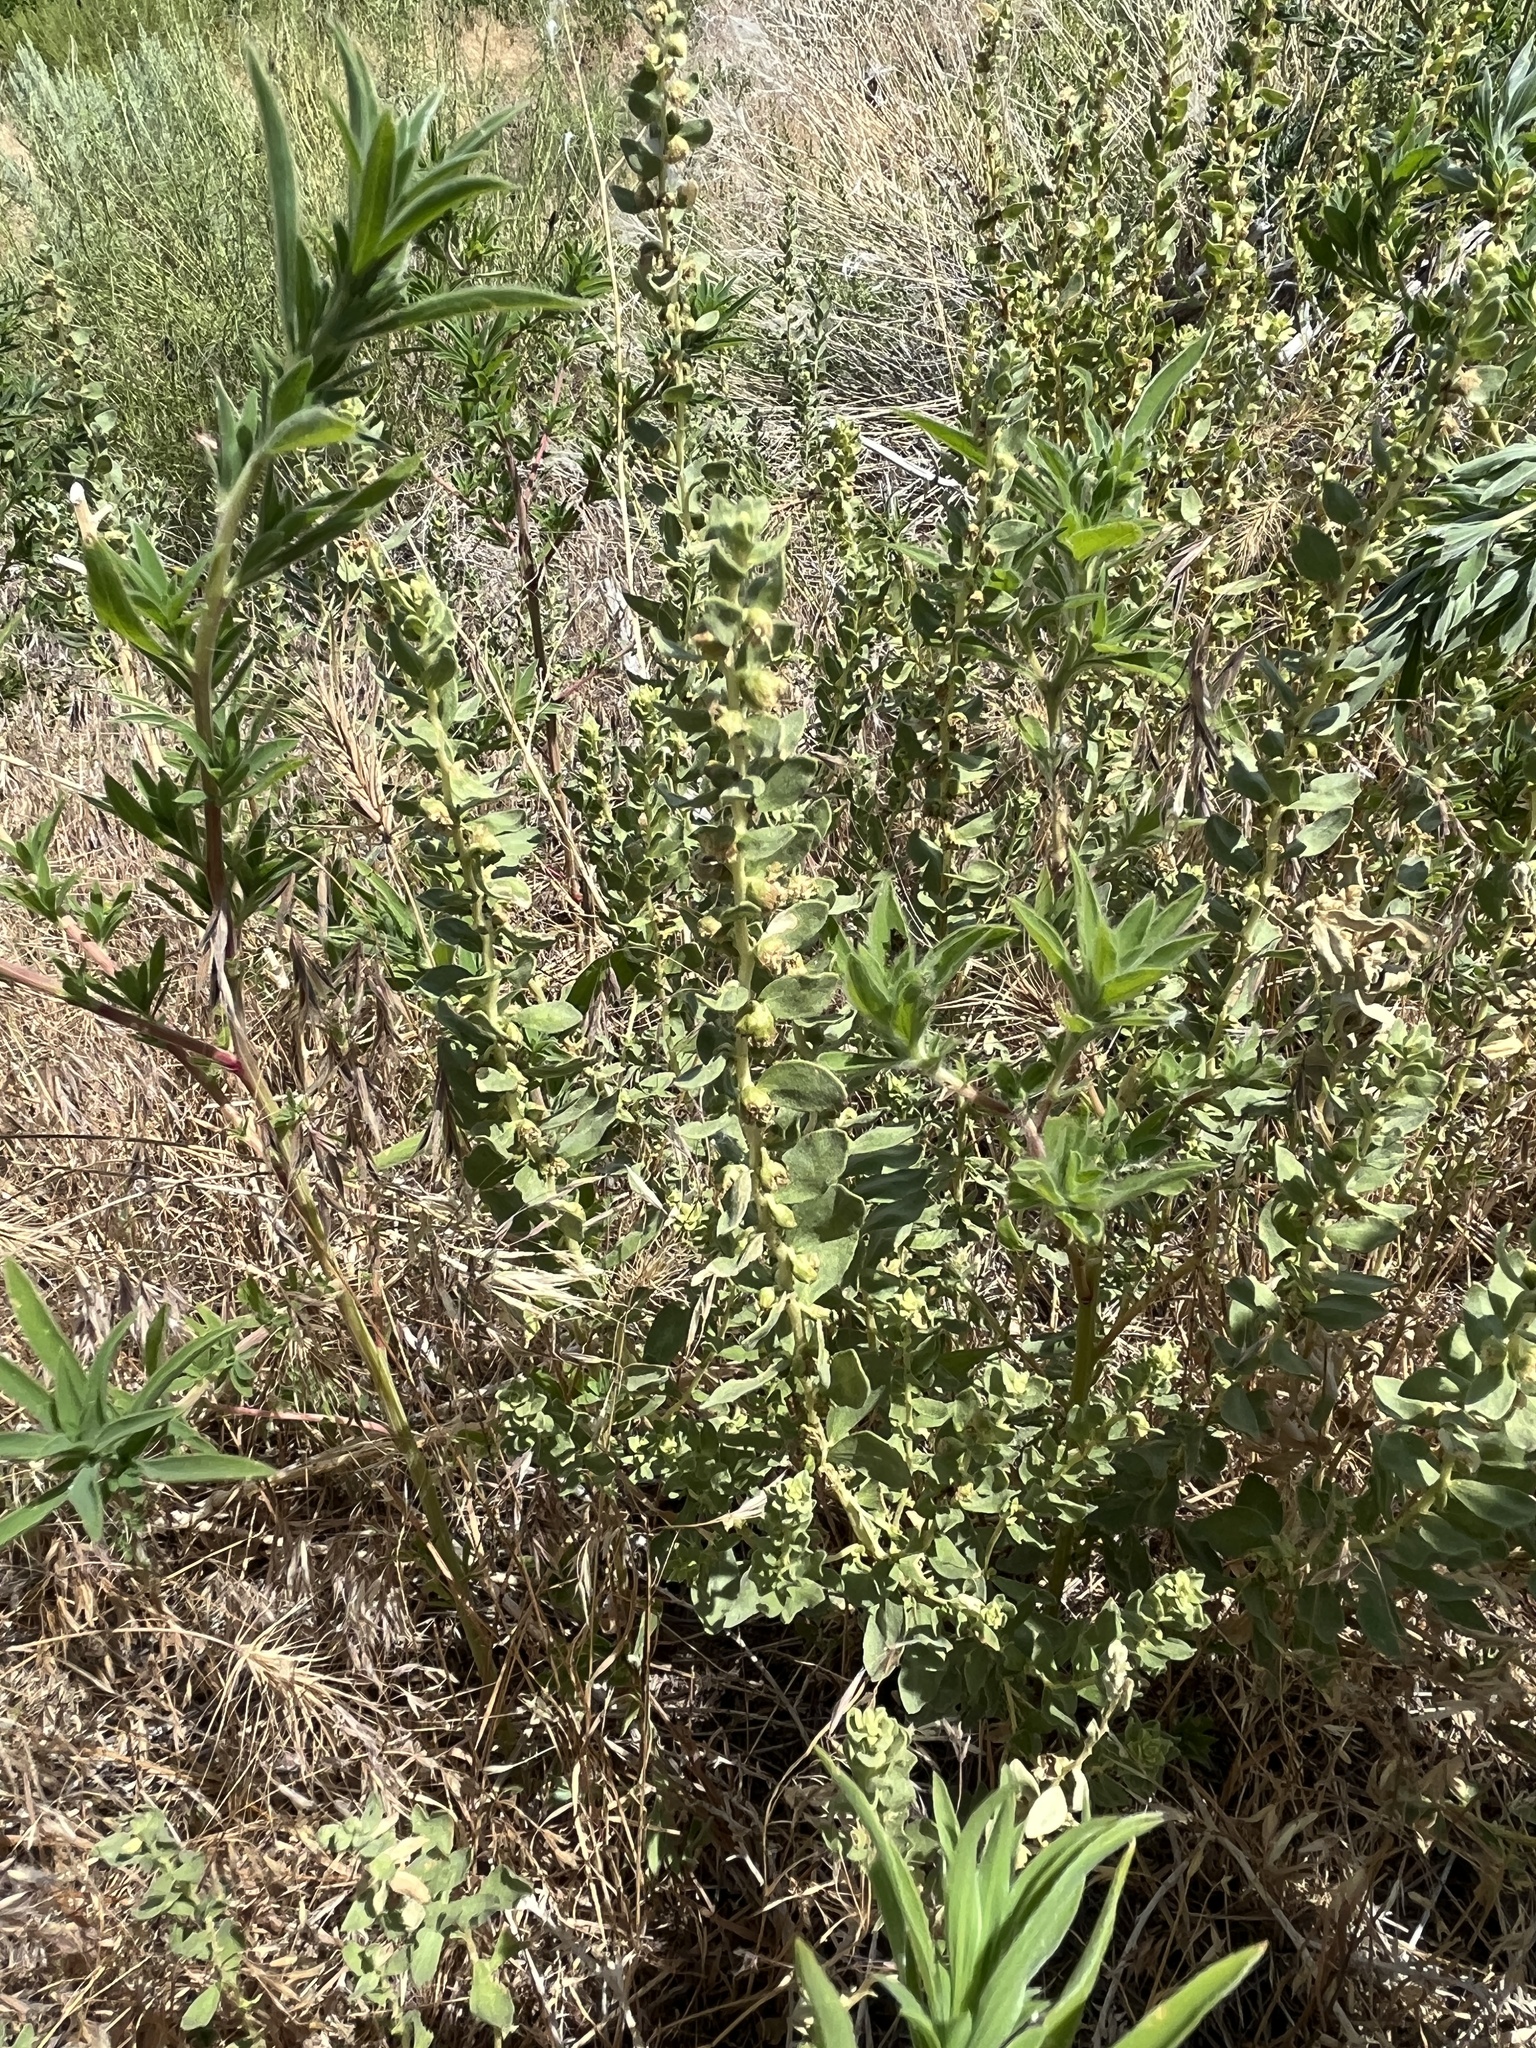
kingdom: Plantae
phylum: Tracheophyta
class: Magnoliopsida
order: Asterales
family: Asteraceae
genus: Iva
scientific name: Iva axillaris
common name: Poverty sumpweed
